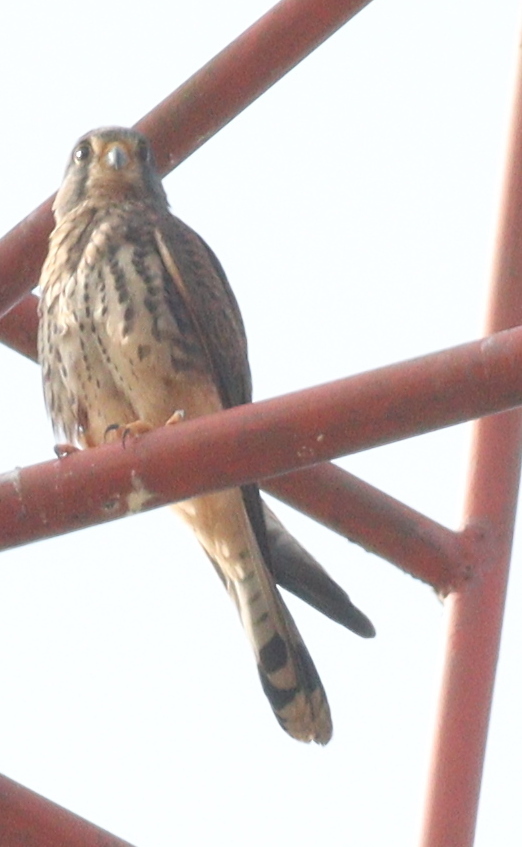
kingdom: Animalia
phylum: Chordata
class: Aves
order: Falconiformes
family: Falconidae
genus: Falco
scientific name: Falco tinnunculus
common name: Common kestrel
